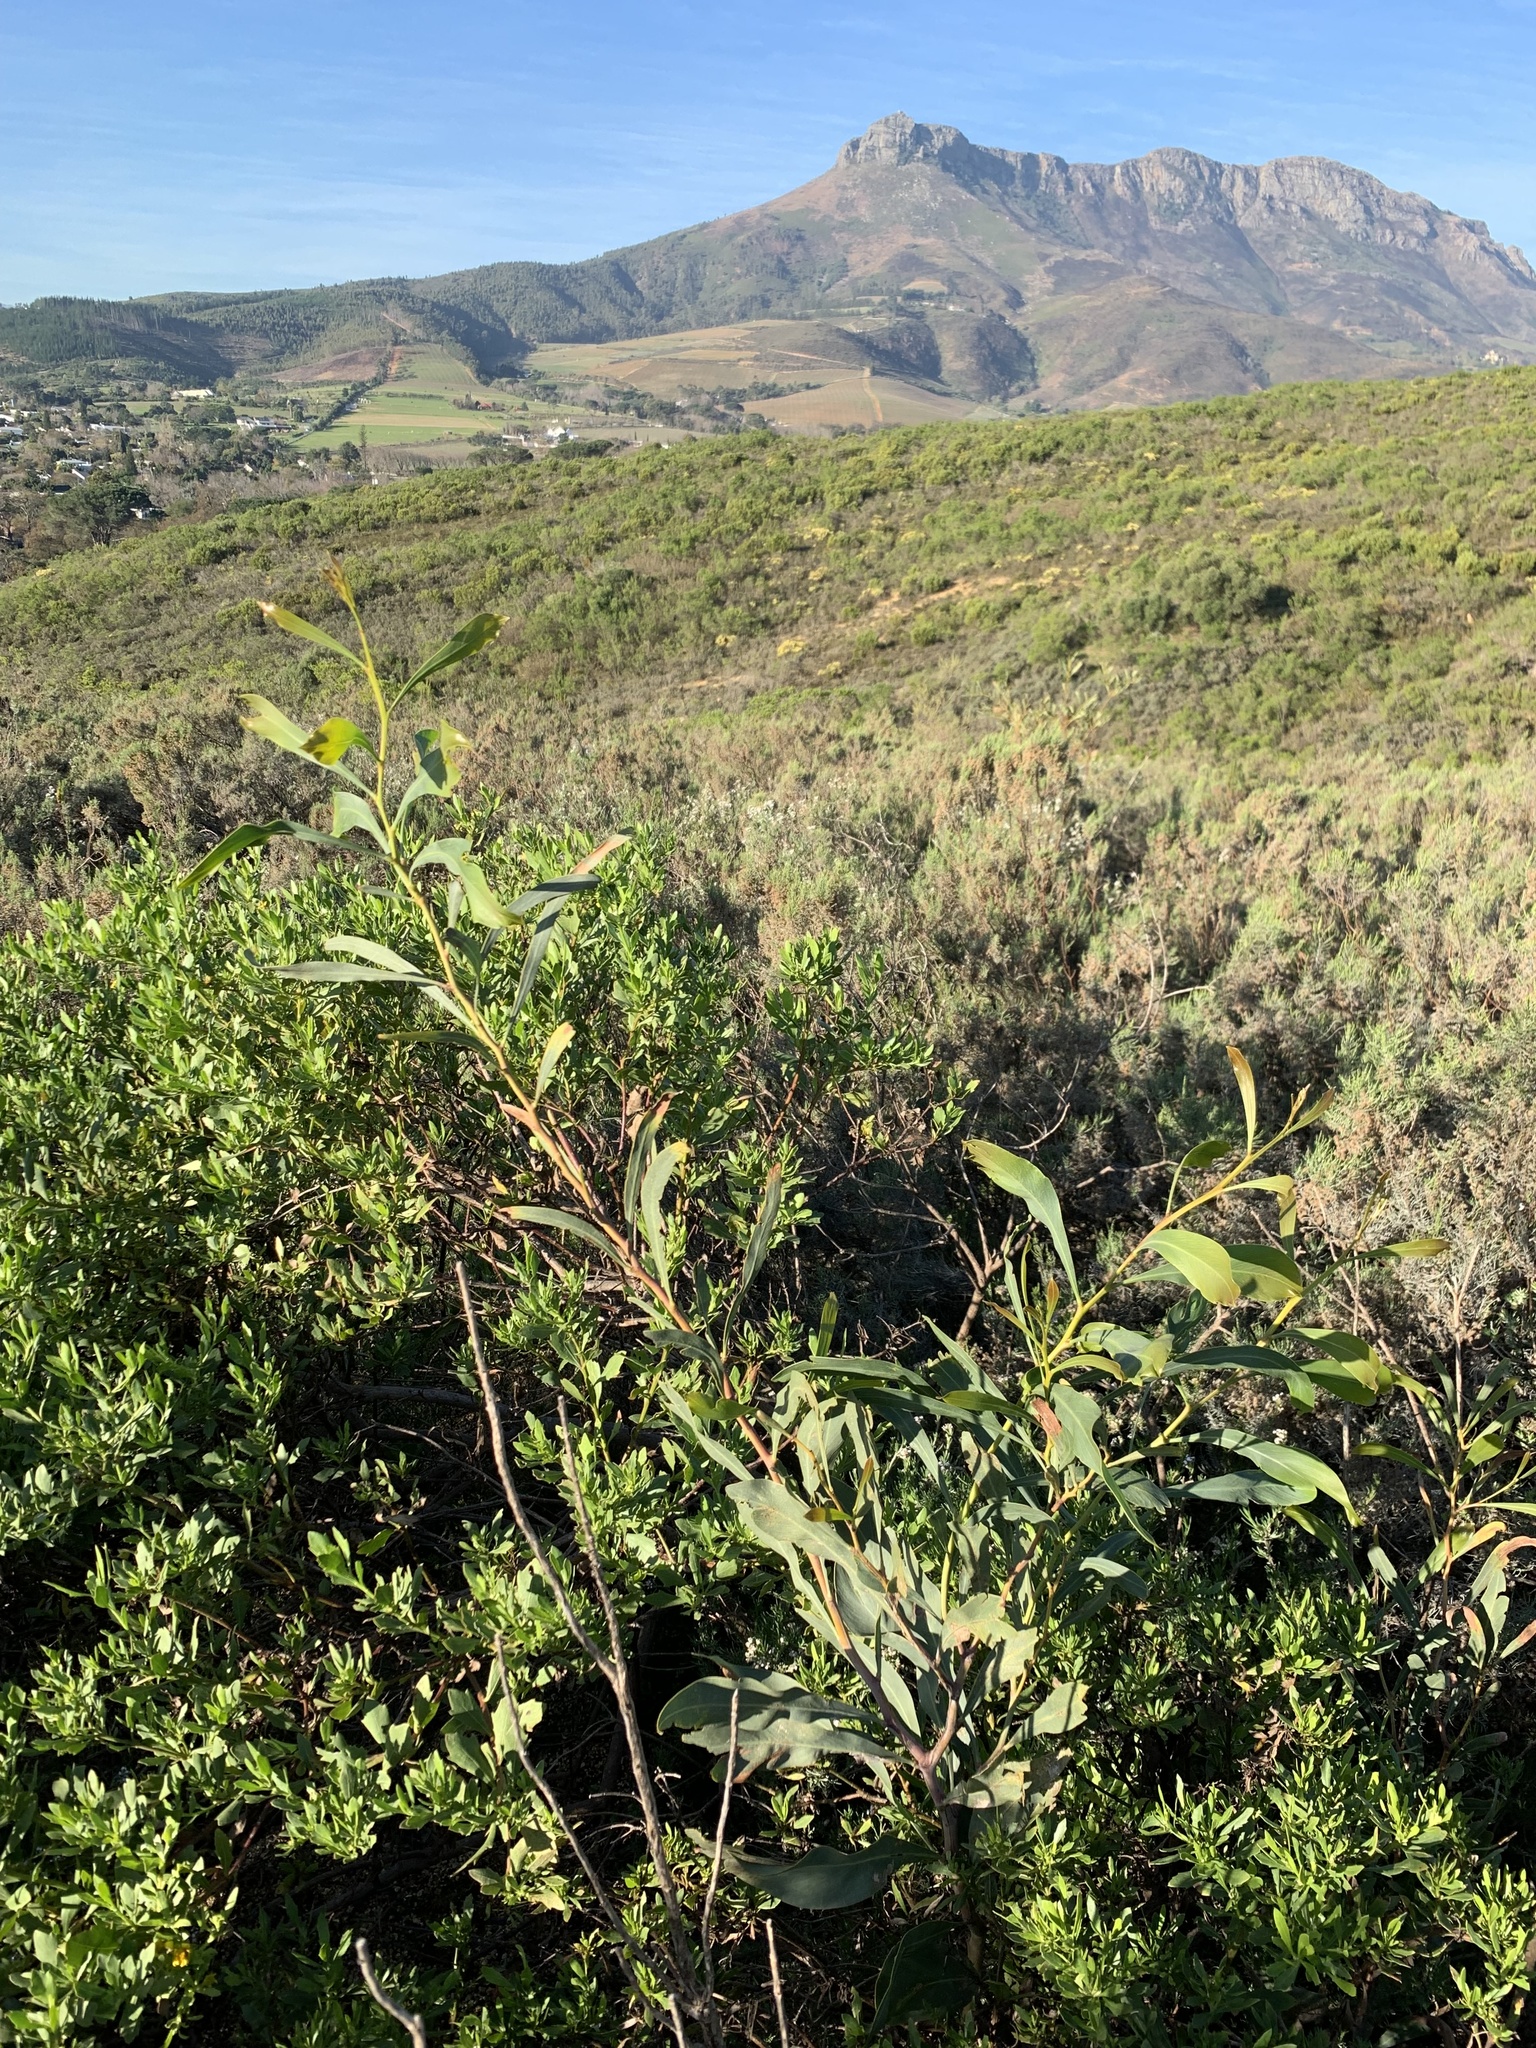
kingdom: Plantae
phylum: Tracheophyta
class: Magnoliopsida
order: Fabales
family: Fabaceae
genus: Acacia
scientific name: Acacia saligna
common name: Orange wattle
